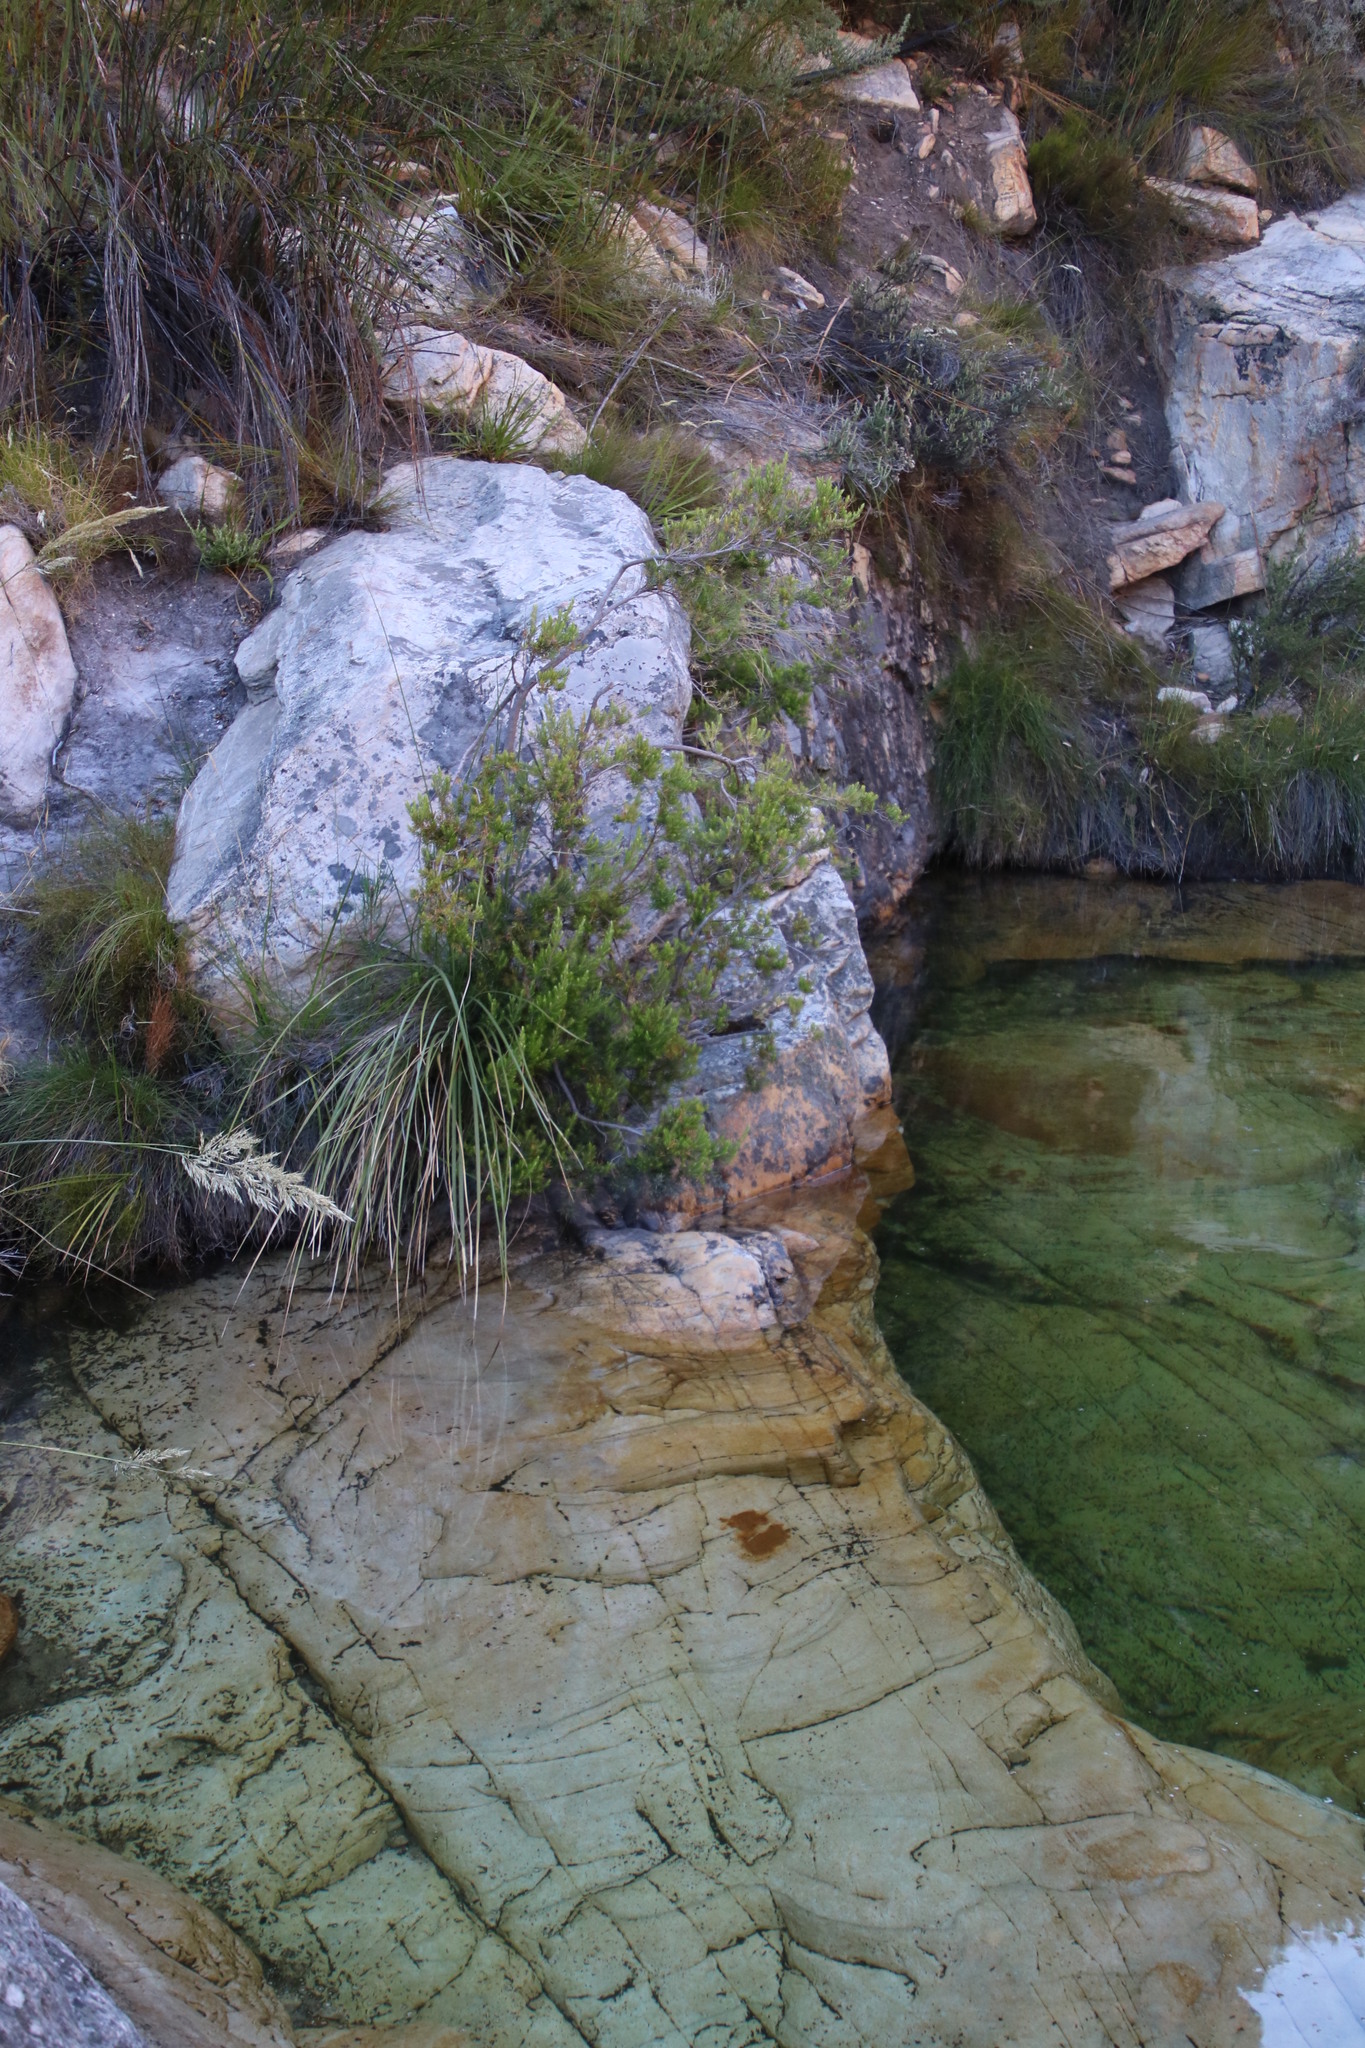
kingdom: Plantae
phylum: Tracheophyta
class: Magnoliopsida
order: Ericales
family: Ericaceae
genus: Erica
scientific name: Erica caffra
